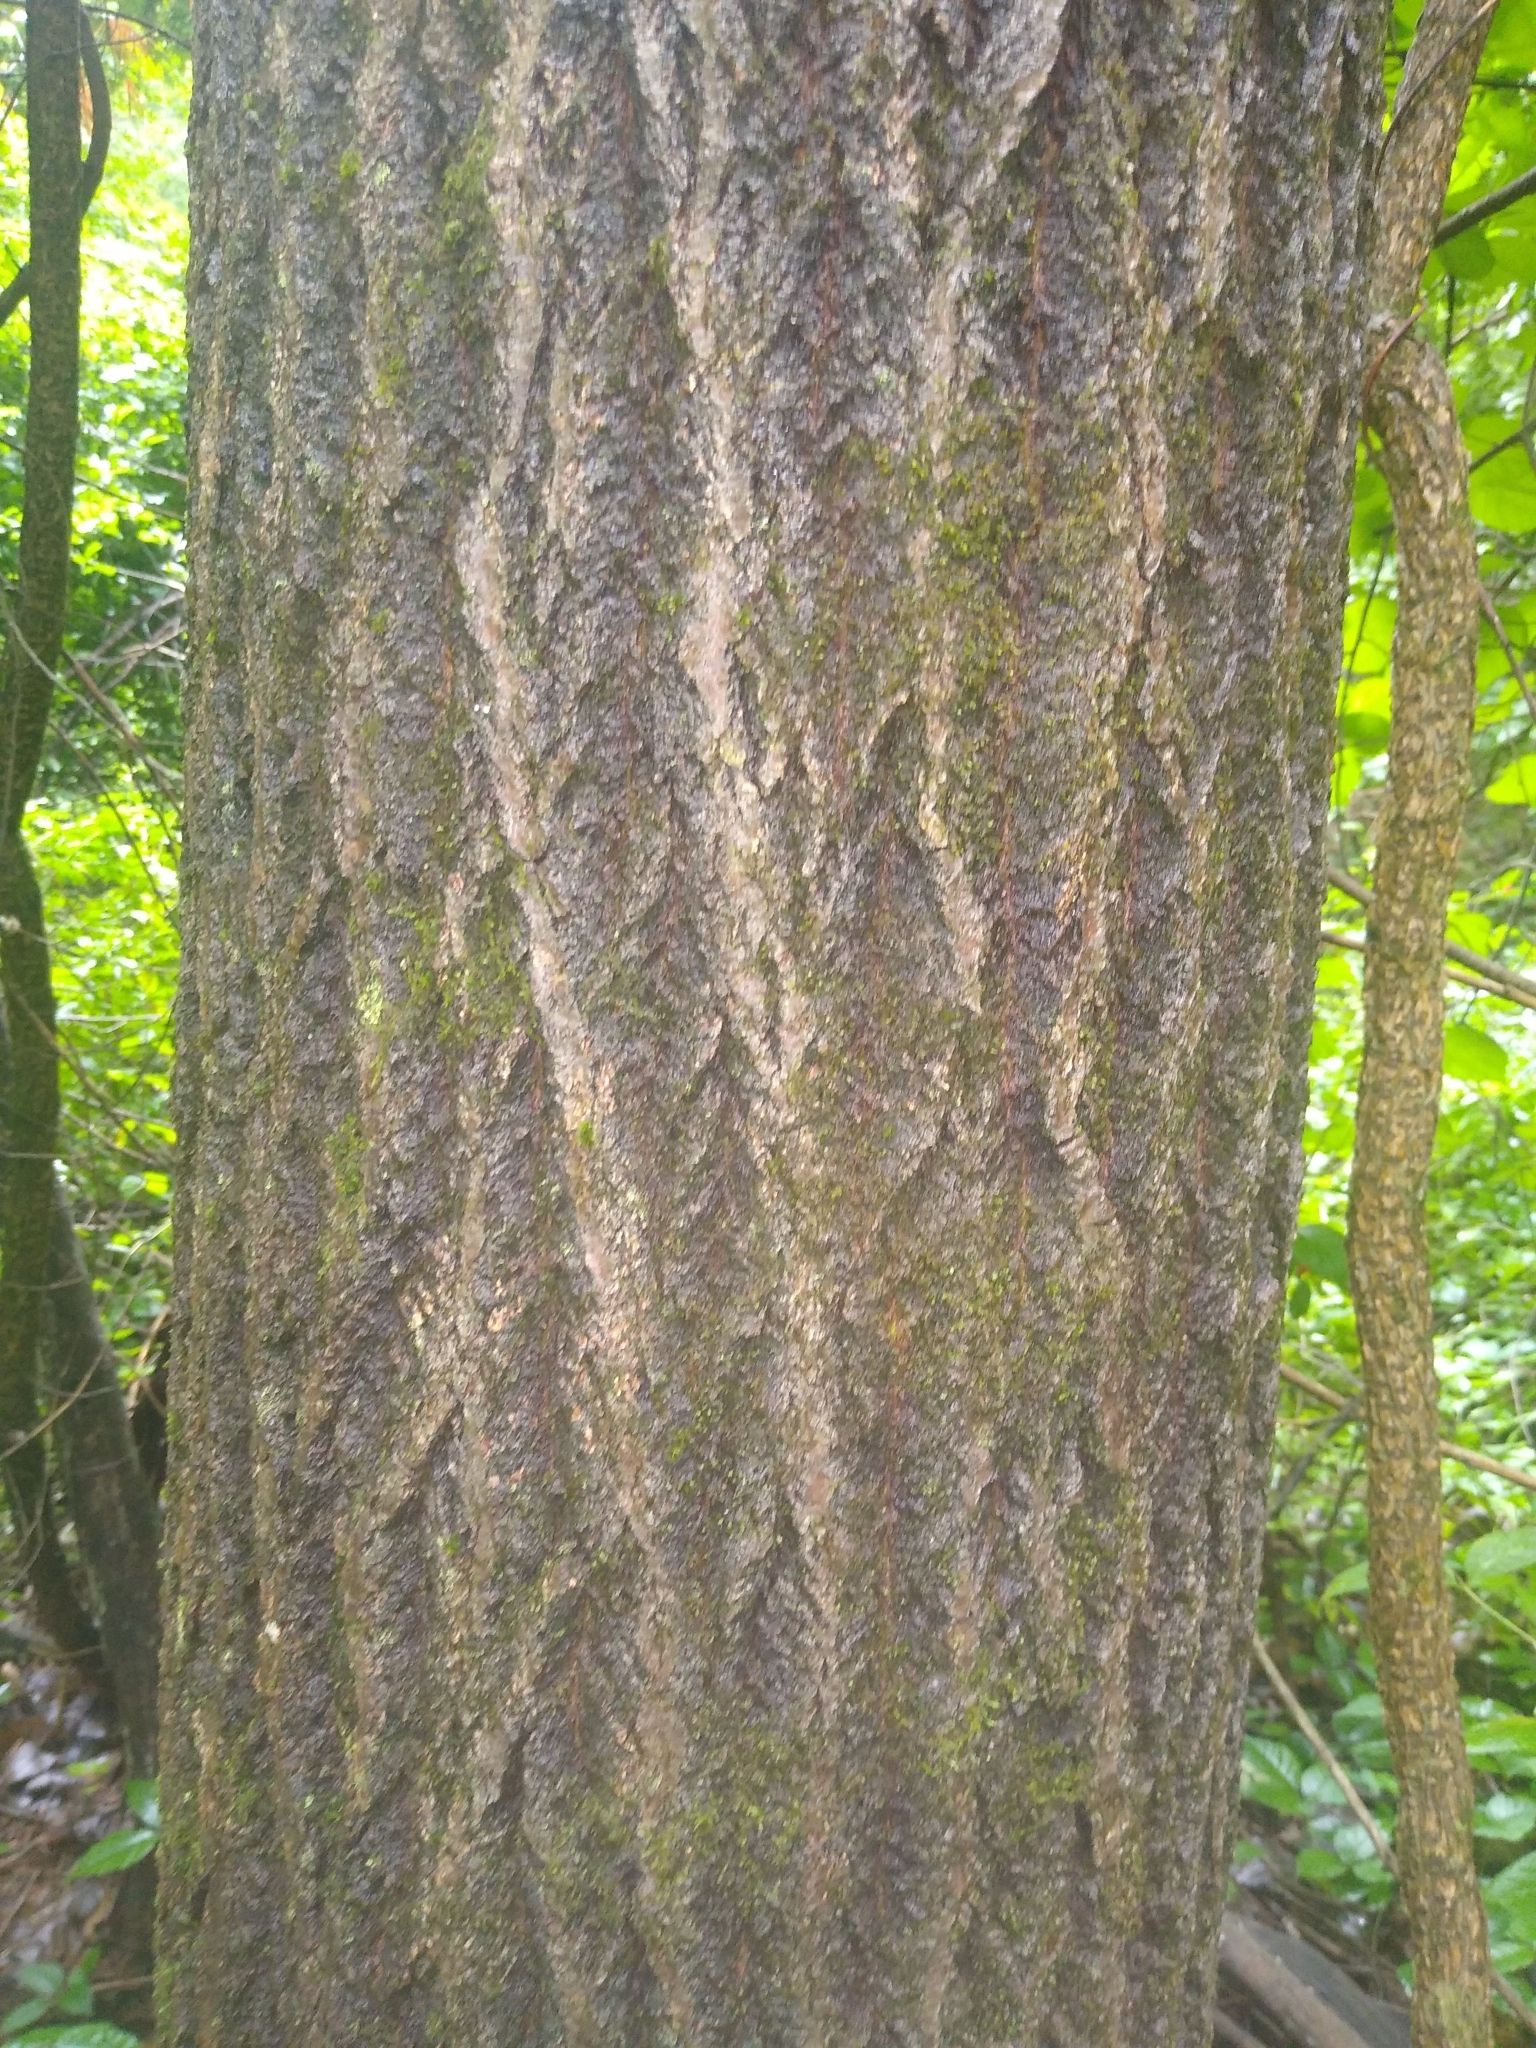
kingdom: Plantae
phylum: Tracheophyta
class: Magnoliopsida
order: Malpighiales
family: Salicaceae
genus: Populus
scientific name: Populus grandidentata
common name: Bigtooth aspen
